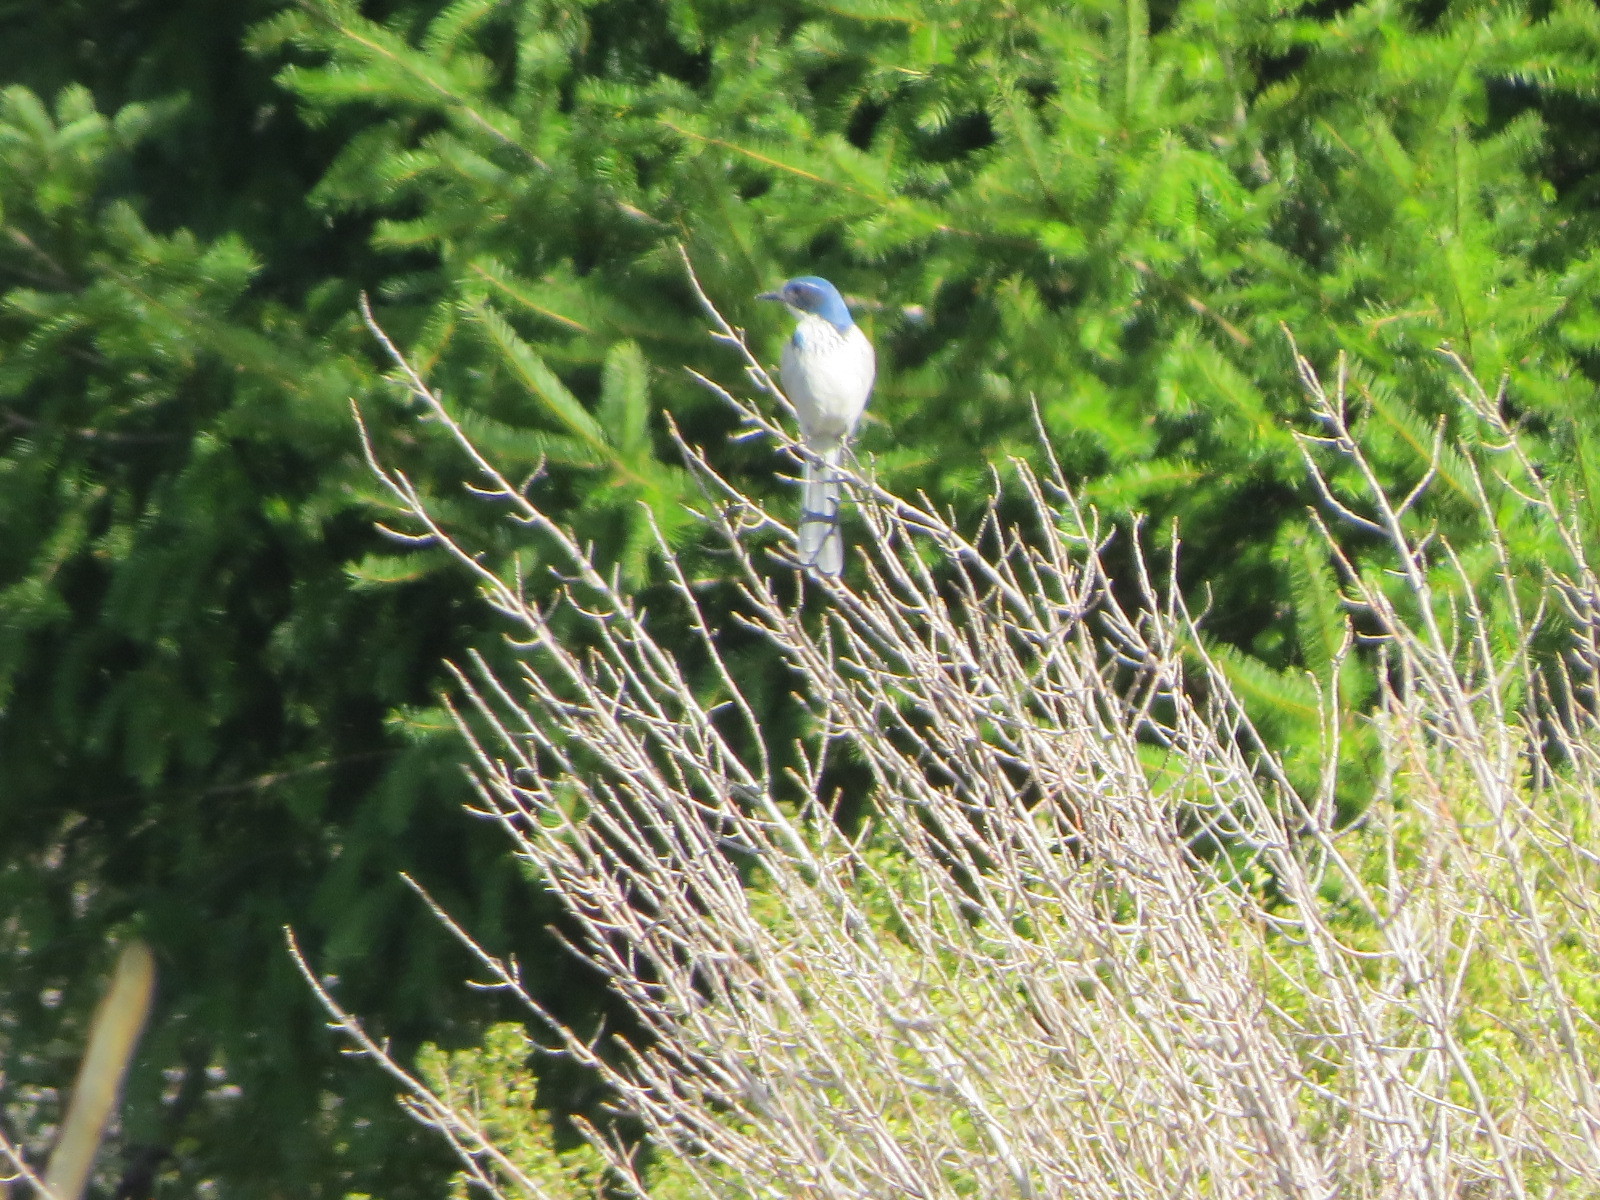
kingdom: Animalia
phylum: Chordata
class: Aves
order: Passeriformes
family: Corvidae
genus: Aphelocoma
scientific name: Aphelocoma californica
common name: California scrub-jay
